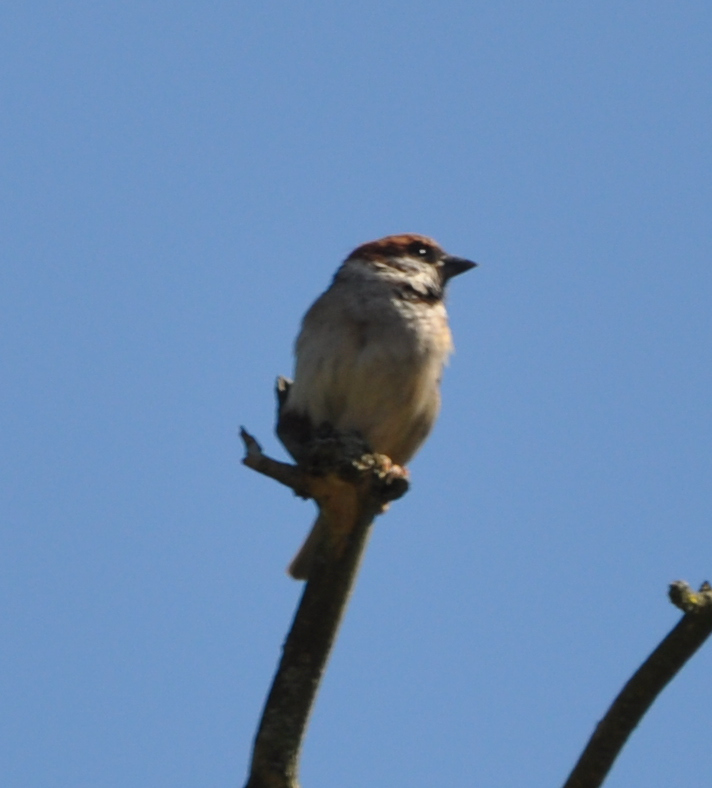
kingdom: Animalia
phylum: Chordata
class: Aves
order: Passeriformes
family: Passeridae
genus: Passer
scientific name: Passer montanus
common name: Eurasian tree sparrow
